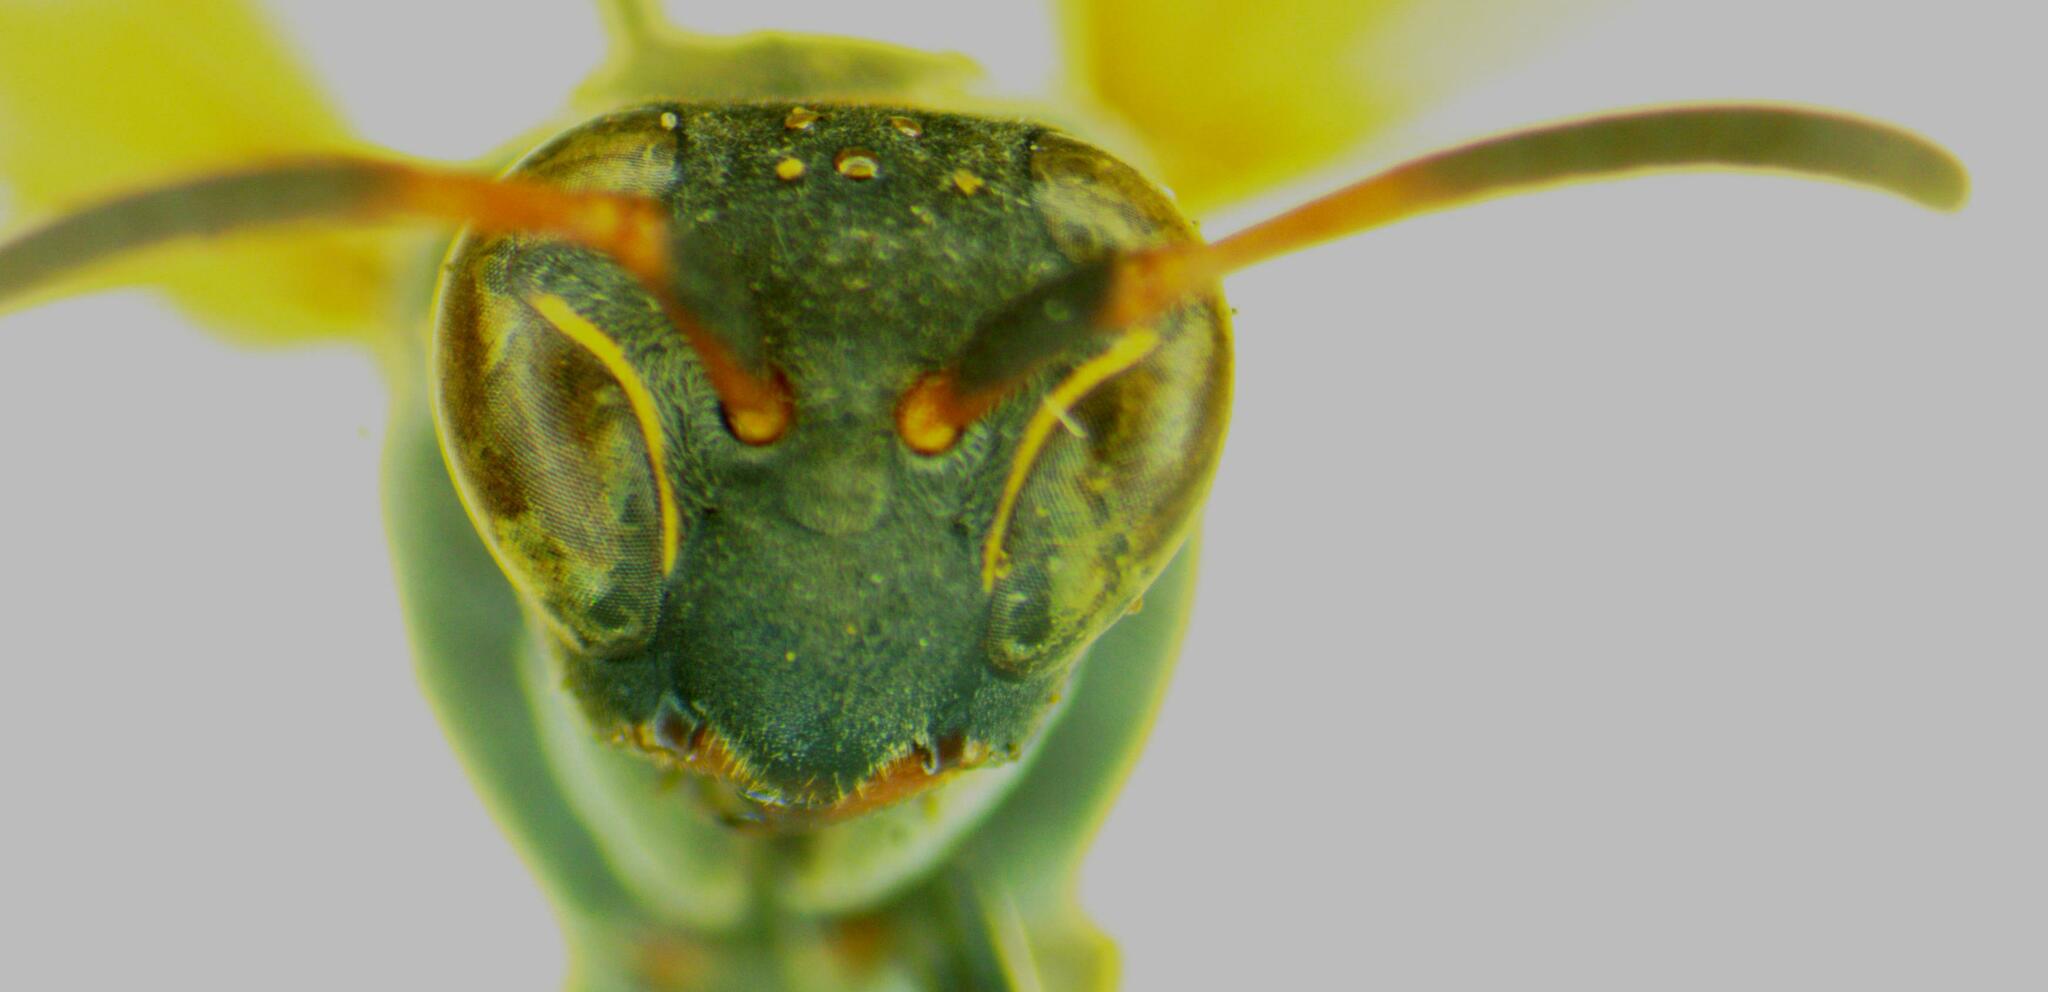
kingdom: Animalia
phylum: Arthropoda
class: Insecta
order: Hymenoptera
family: Eumenidae
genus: Polistes
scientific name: Polistes pacificus
